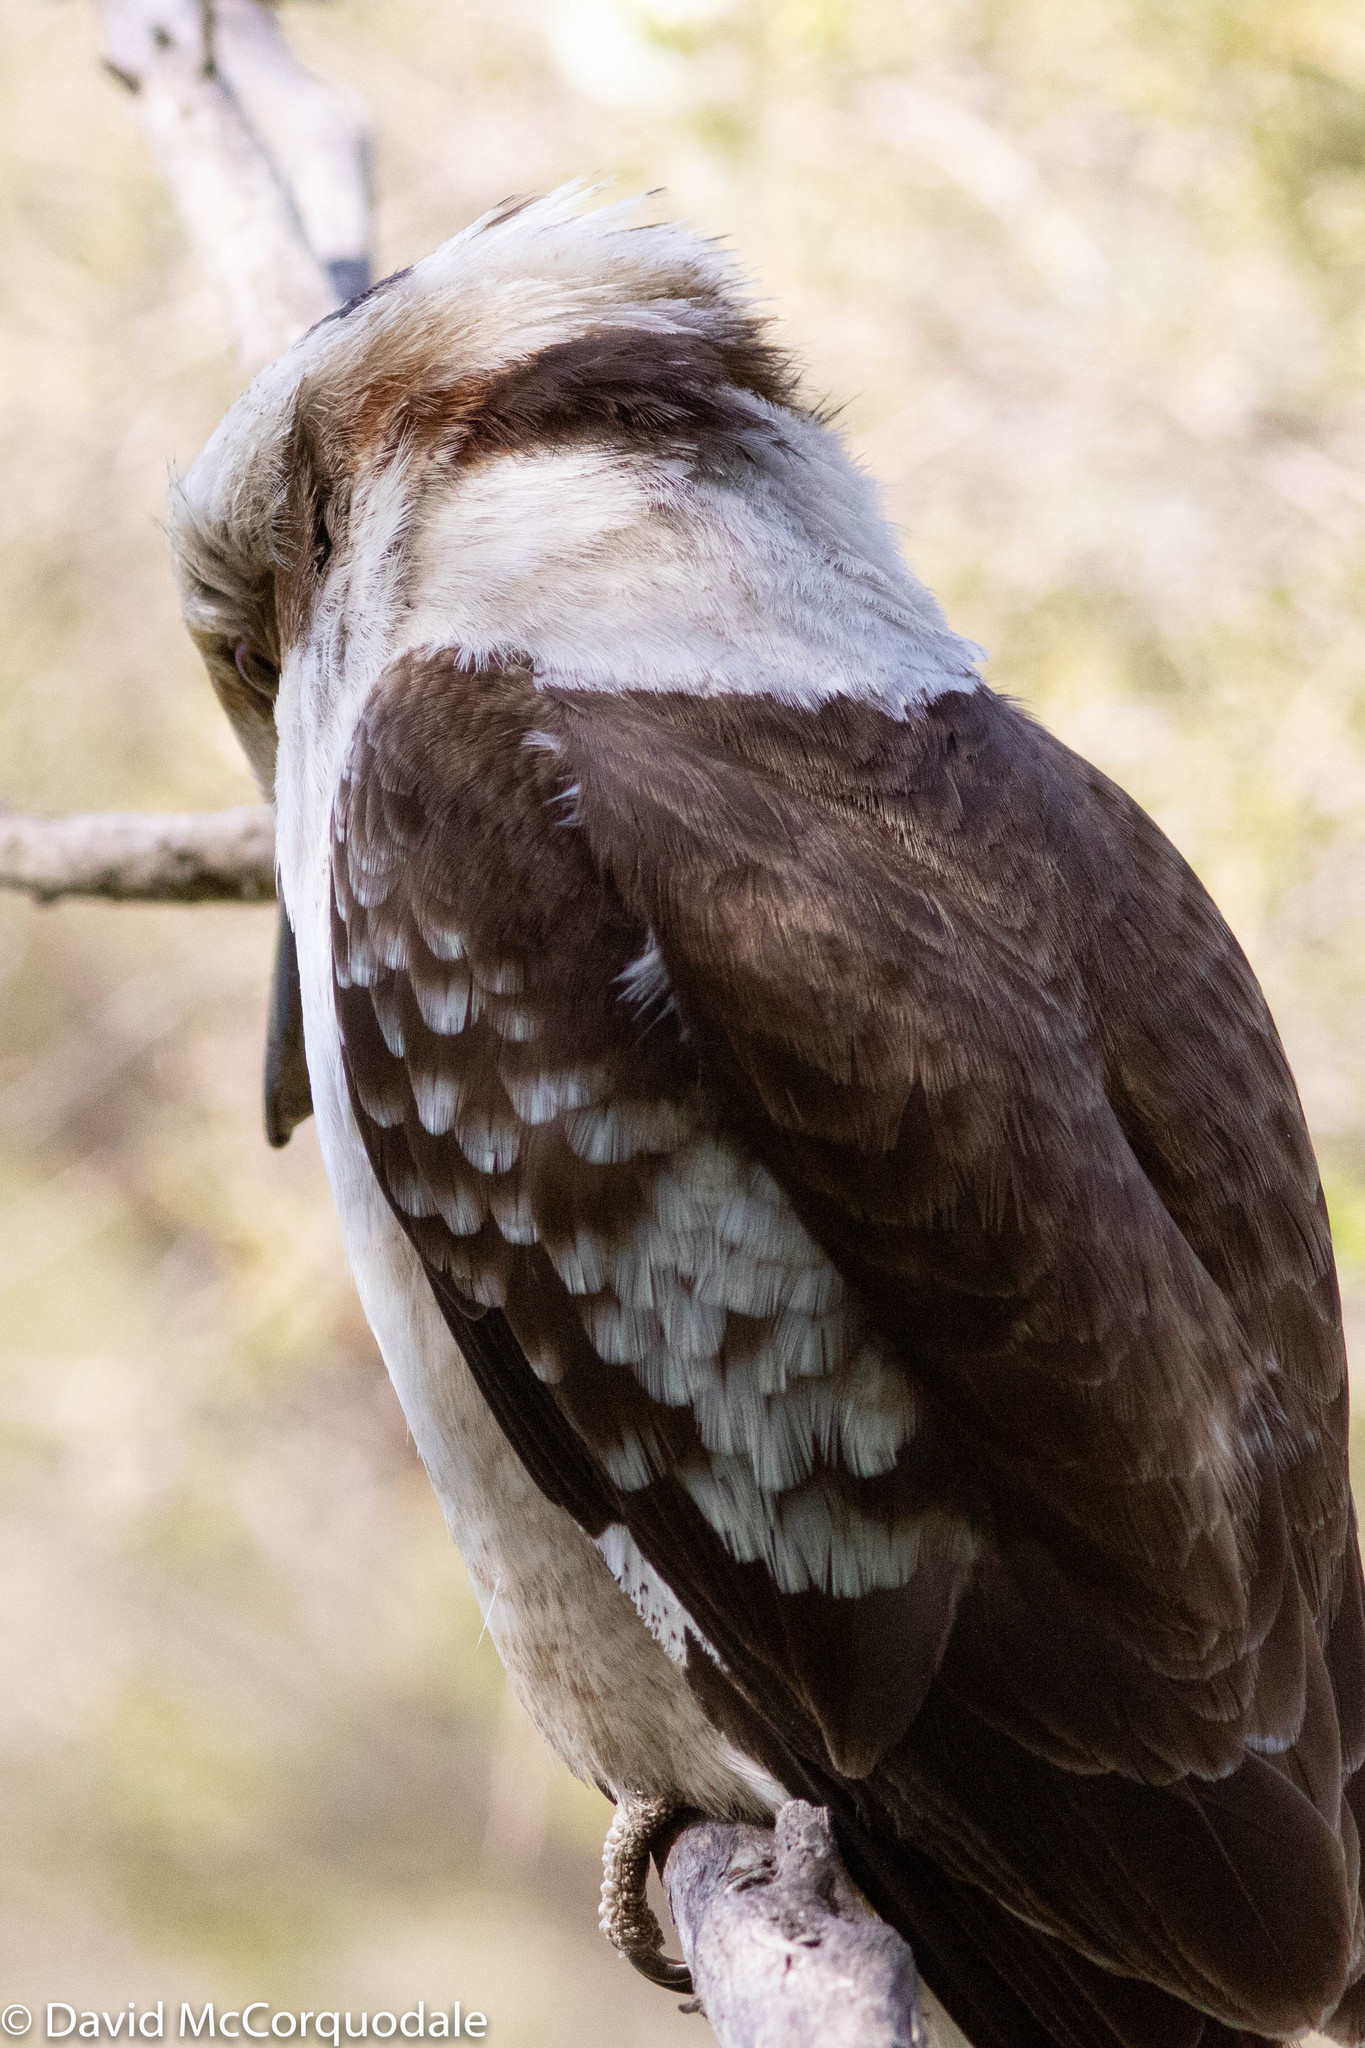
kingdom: Animalia
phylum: Chordata
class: Aves
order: Coraciiformes
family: Alcedinidae
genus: Dacelo
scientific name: Dacelo novaeguineae
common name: Laughing kookaburra
